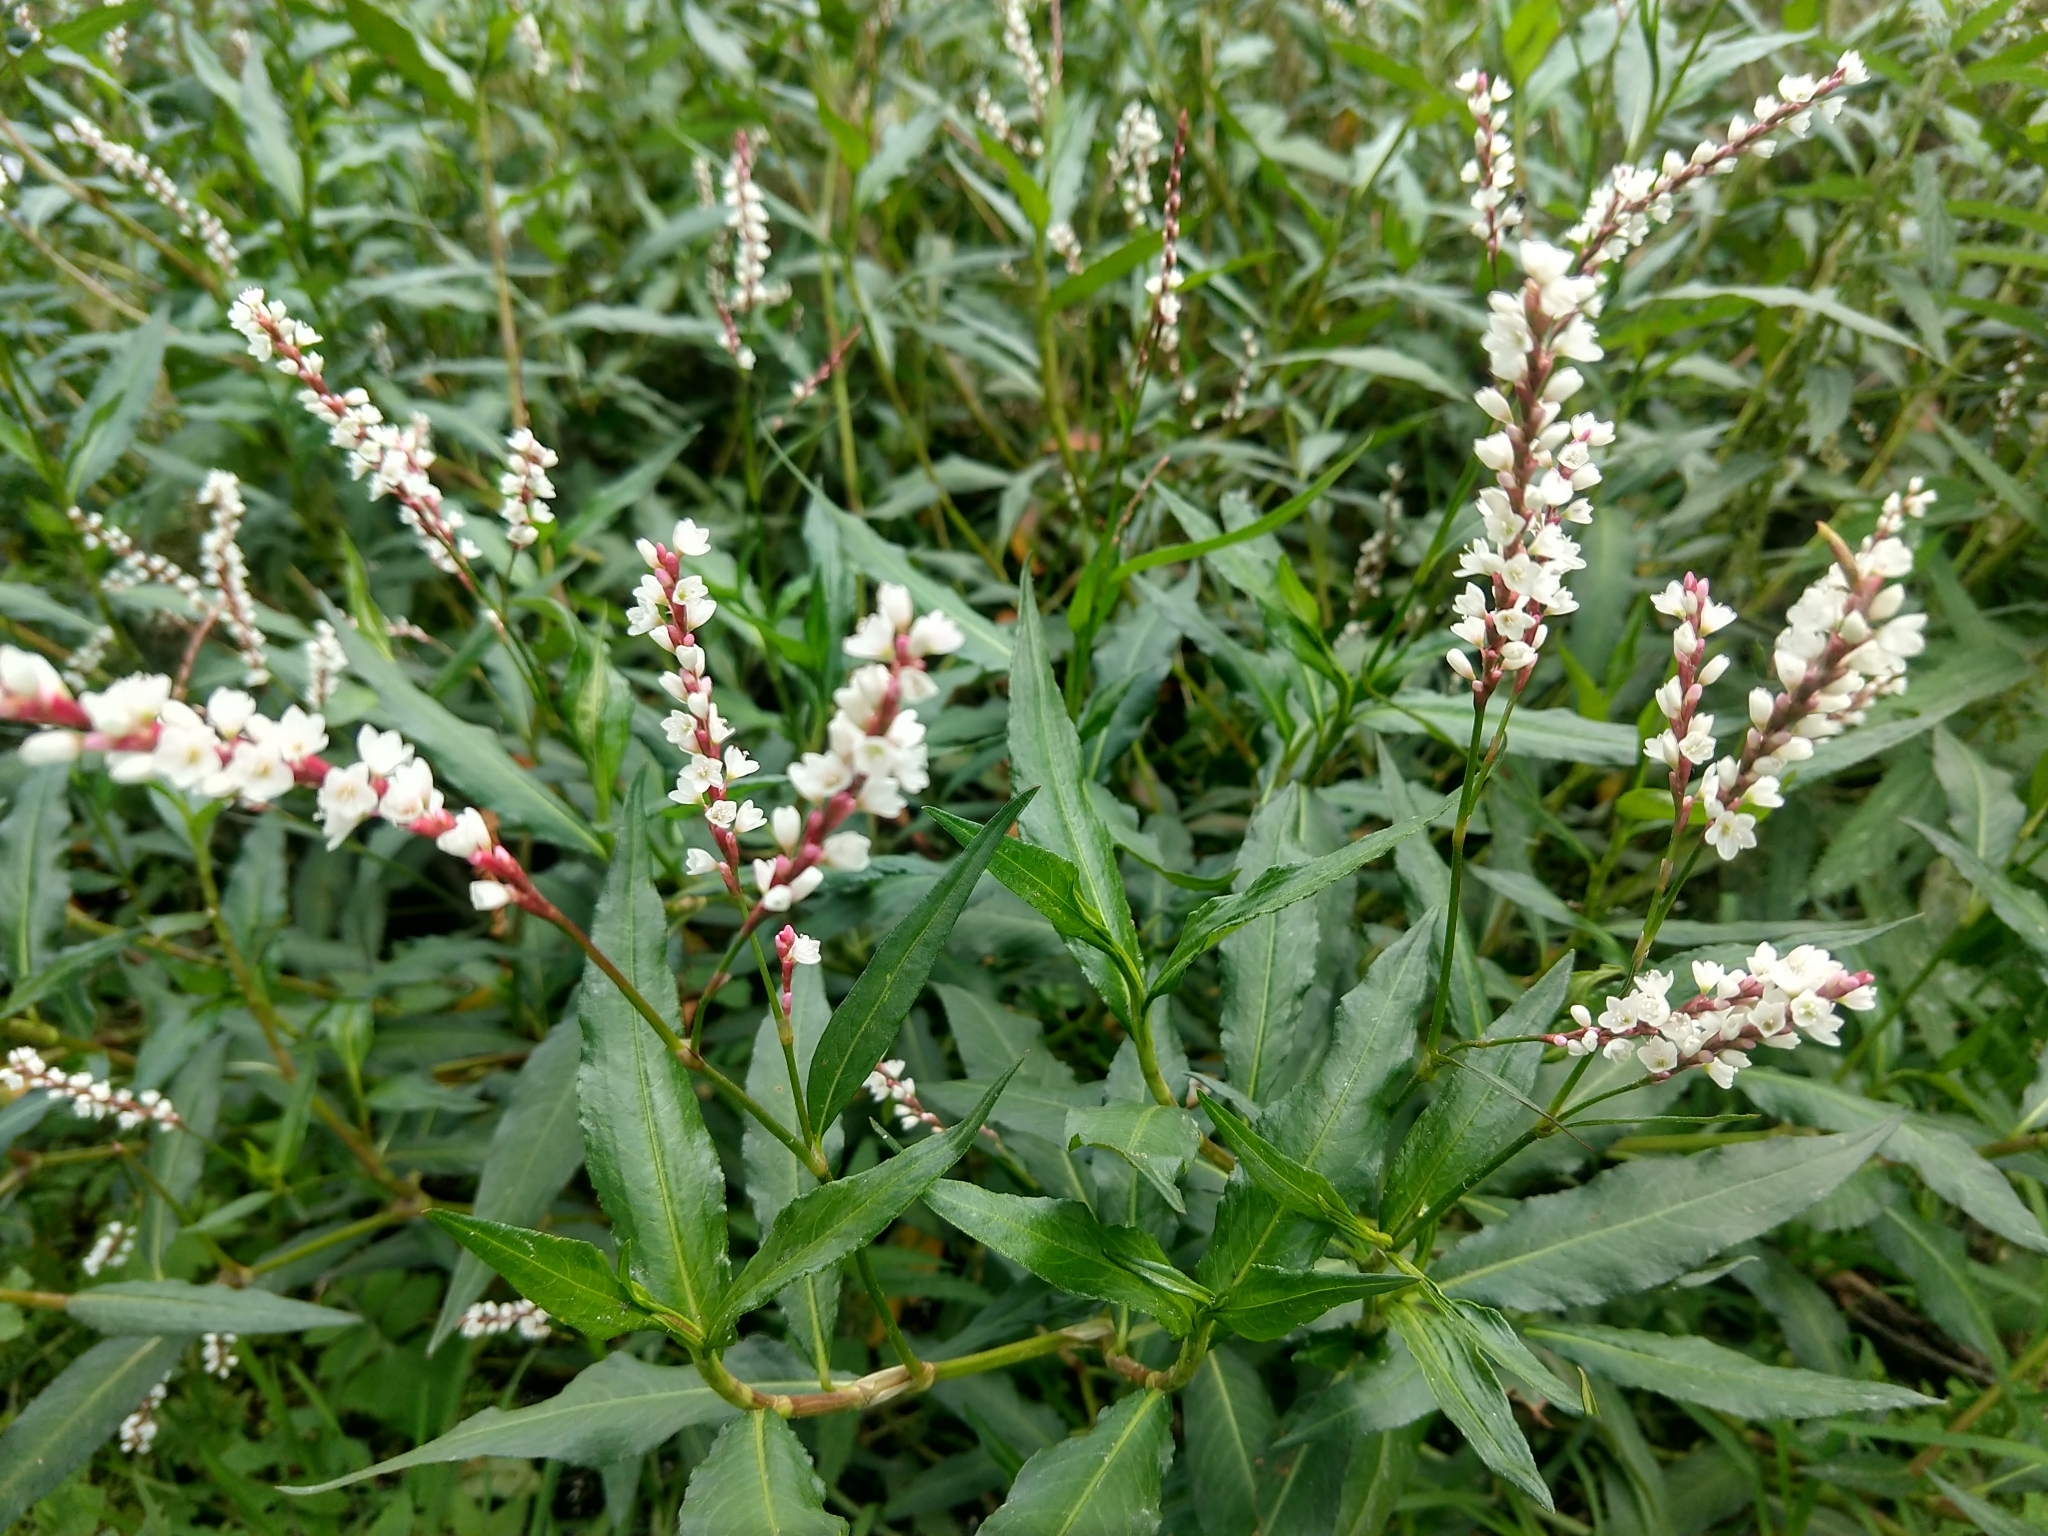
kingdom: Plantae
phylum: Tracheophyta
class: Magnoliopsida
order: Caryophyllales
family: Polygonaceae
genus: Persicaria
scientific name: Persicaria hydropiperoides
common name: Swamp smartweed
